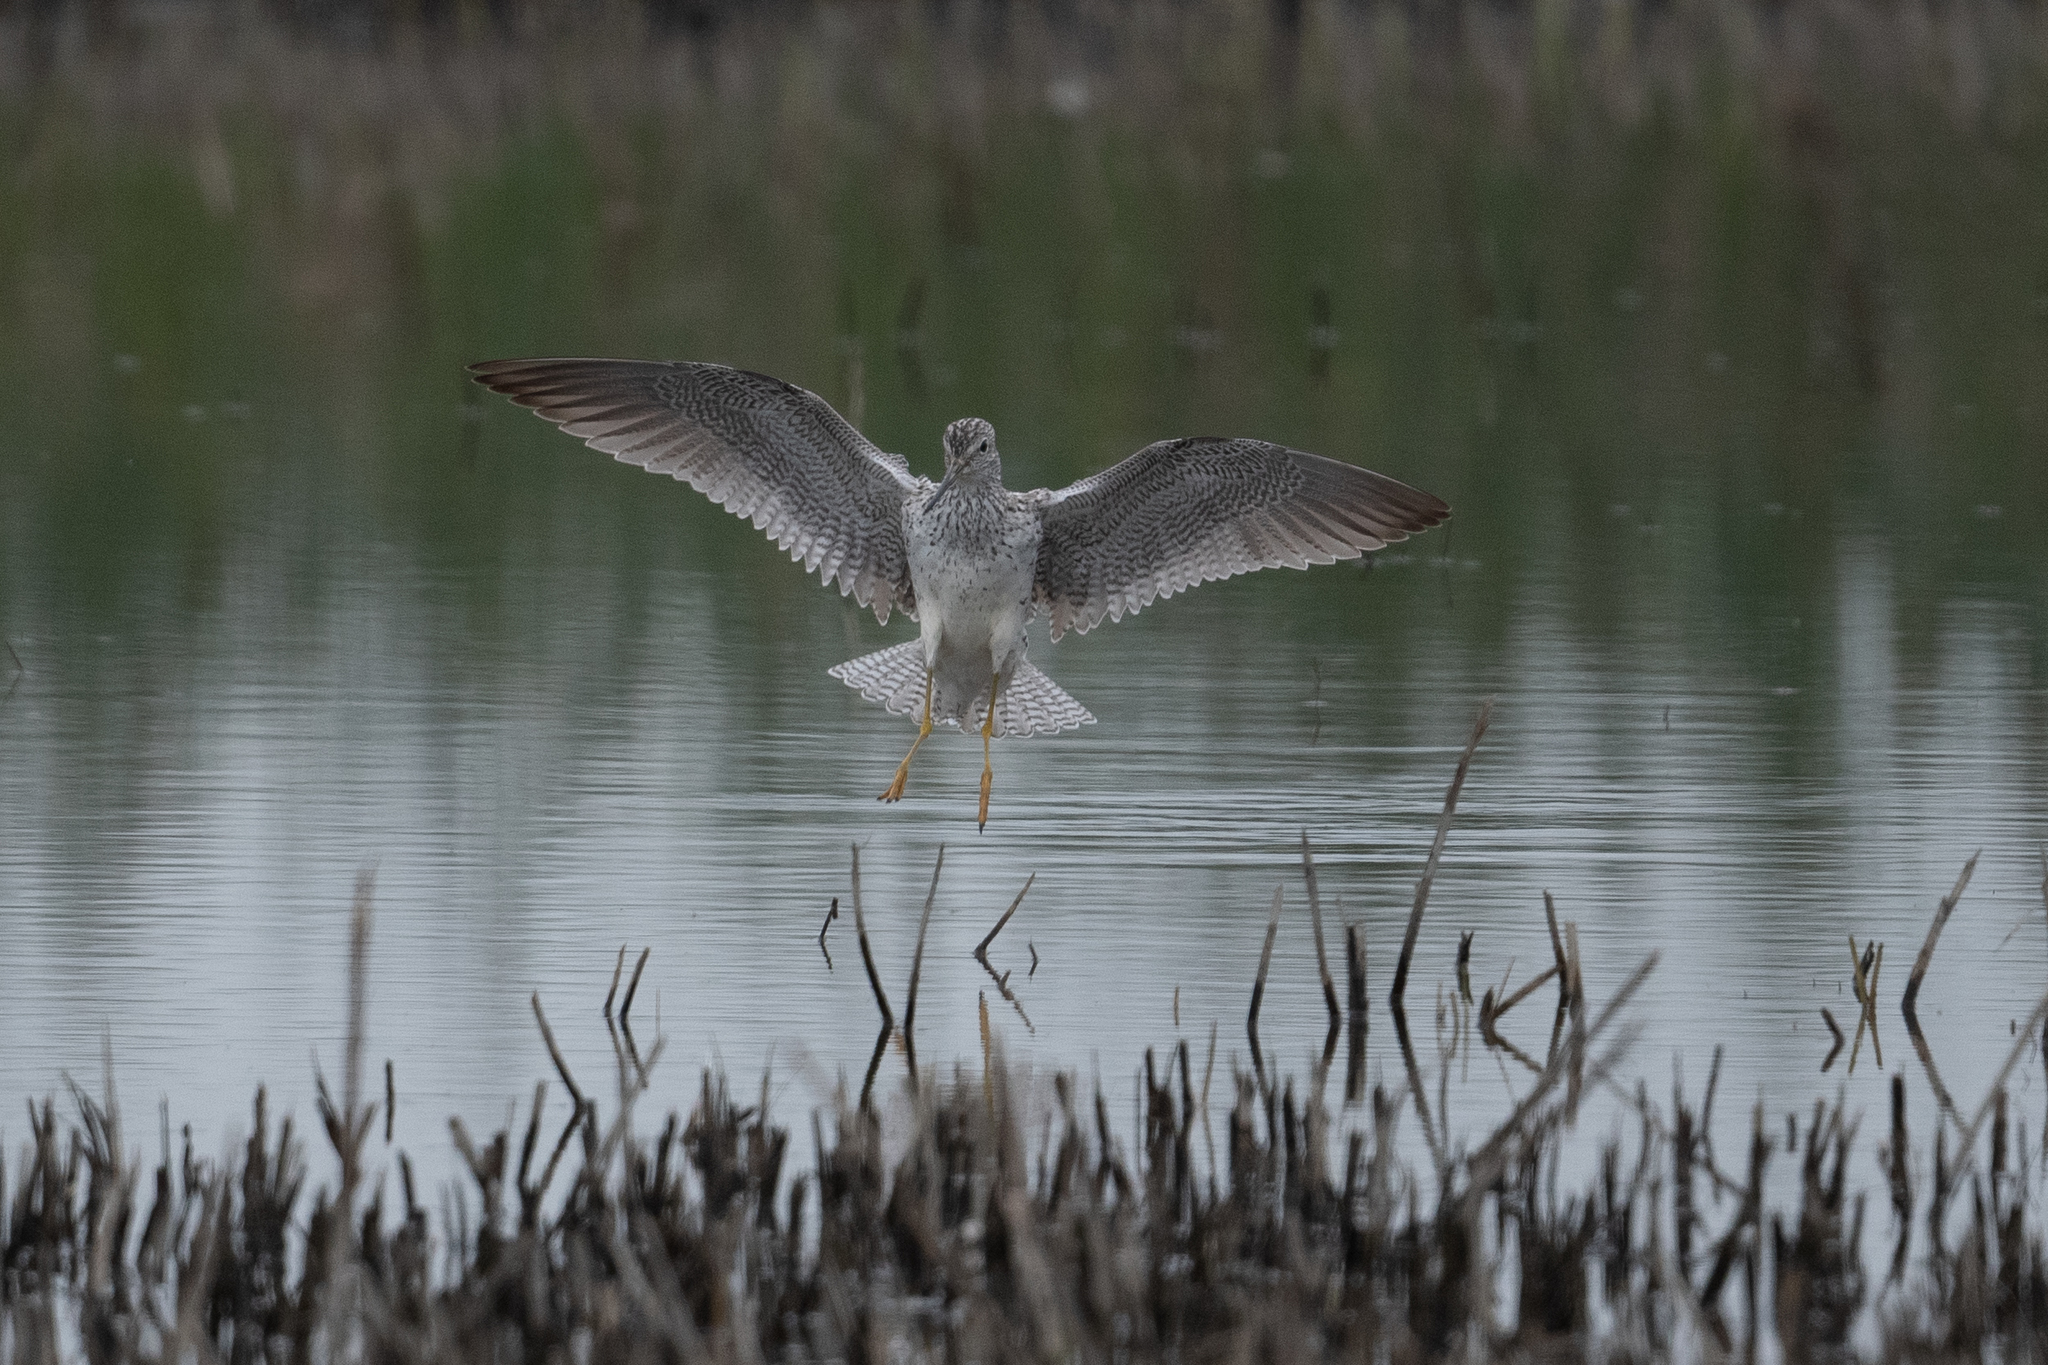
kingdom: Animalia
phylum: Chordata
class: Aves
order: Charadriiformes
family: Scolopacidae
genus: Tringa
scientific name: Tringa melanoleuca
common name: Greater yellowlegs
